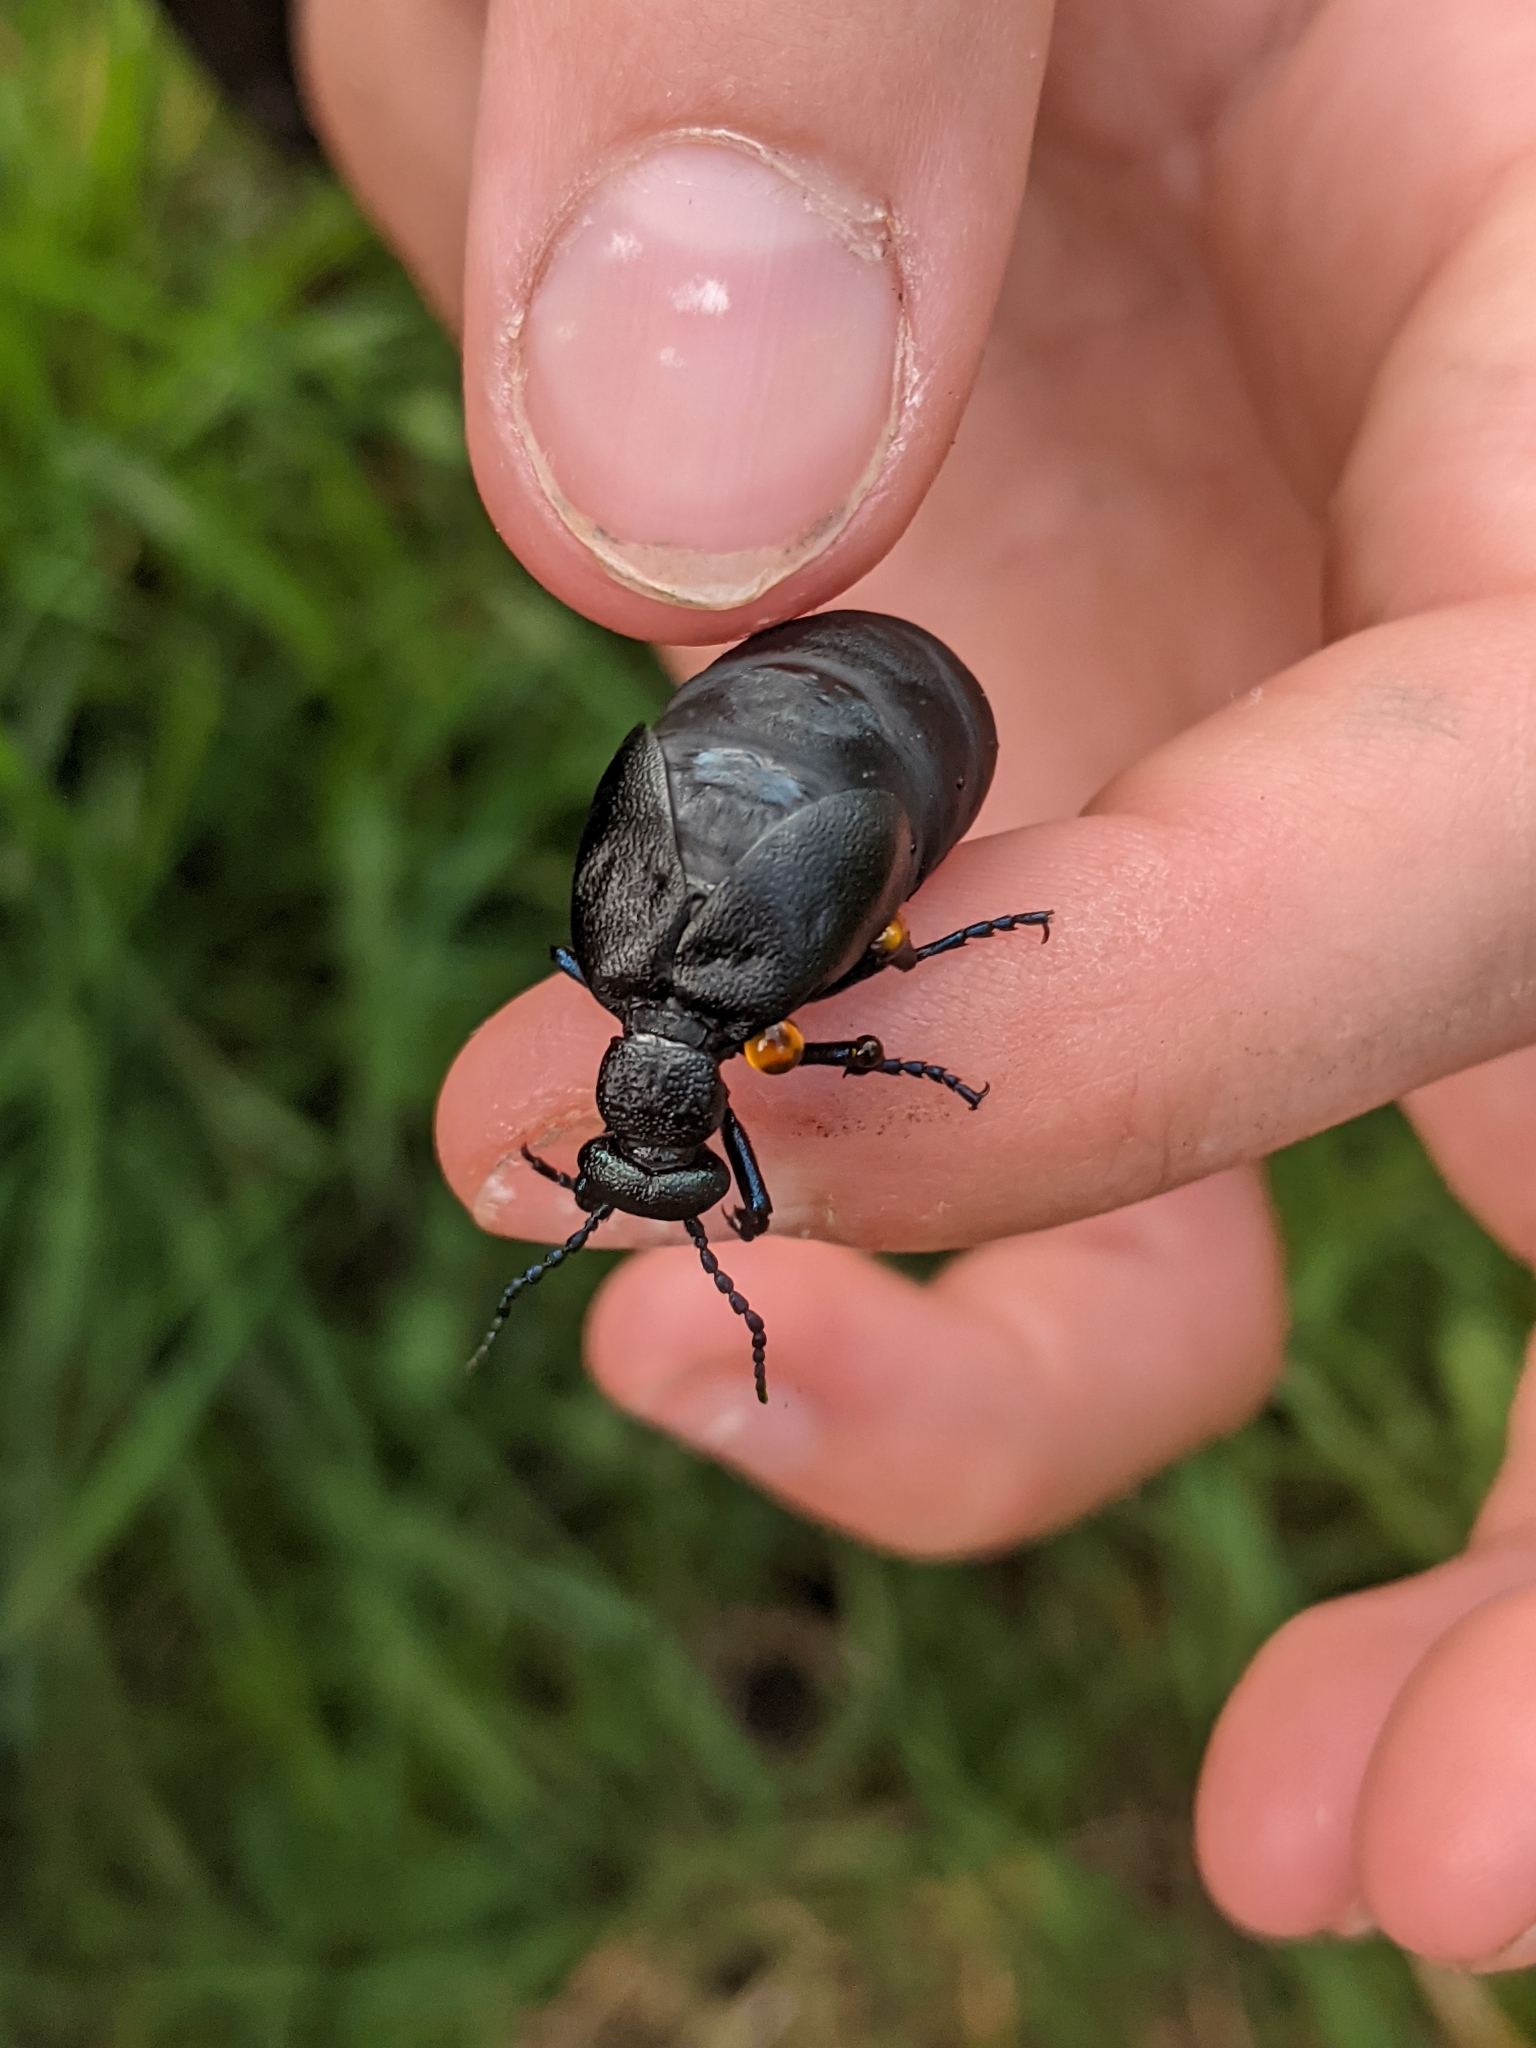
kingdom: Animalia
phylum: Arthropoda
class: Insecta
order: Coleoptera
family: Meloidae
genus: Meloe
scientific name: Meloe proscarabaeus
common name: Black oil-beetle
